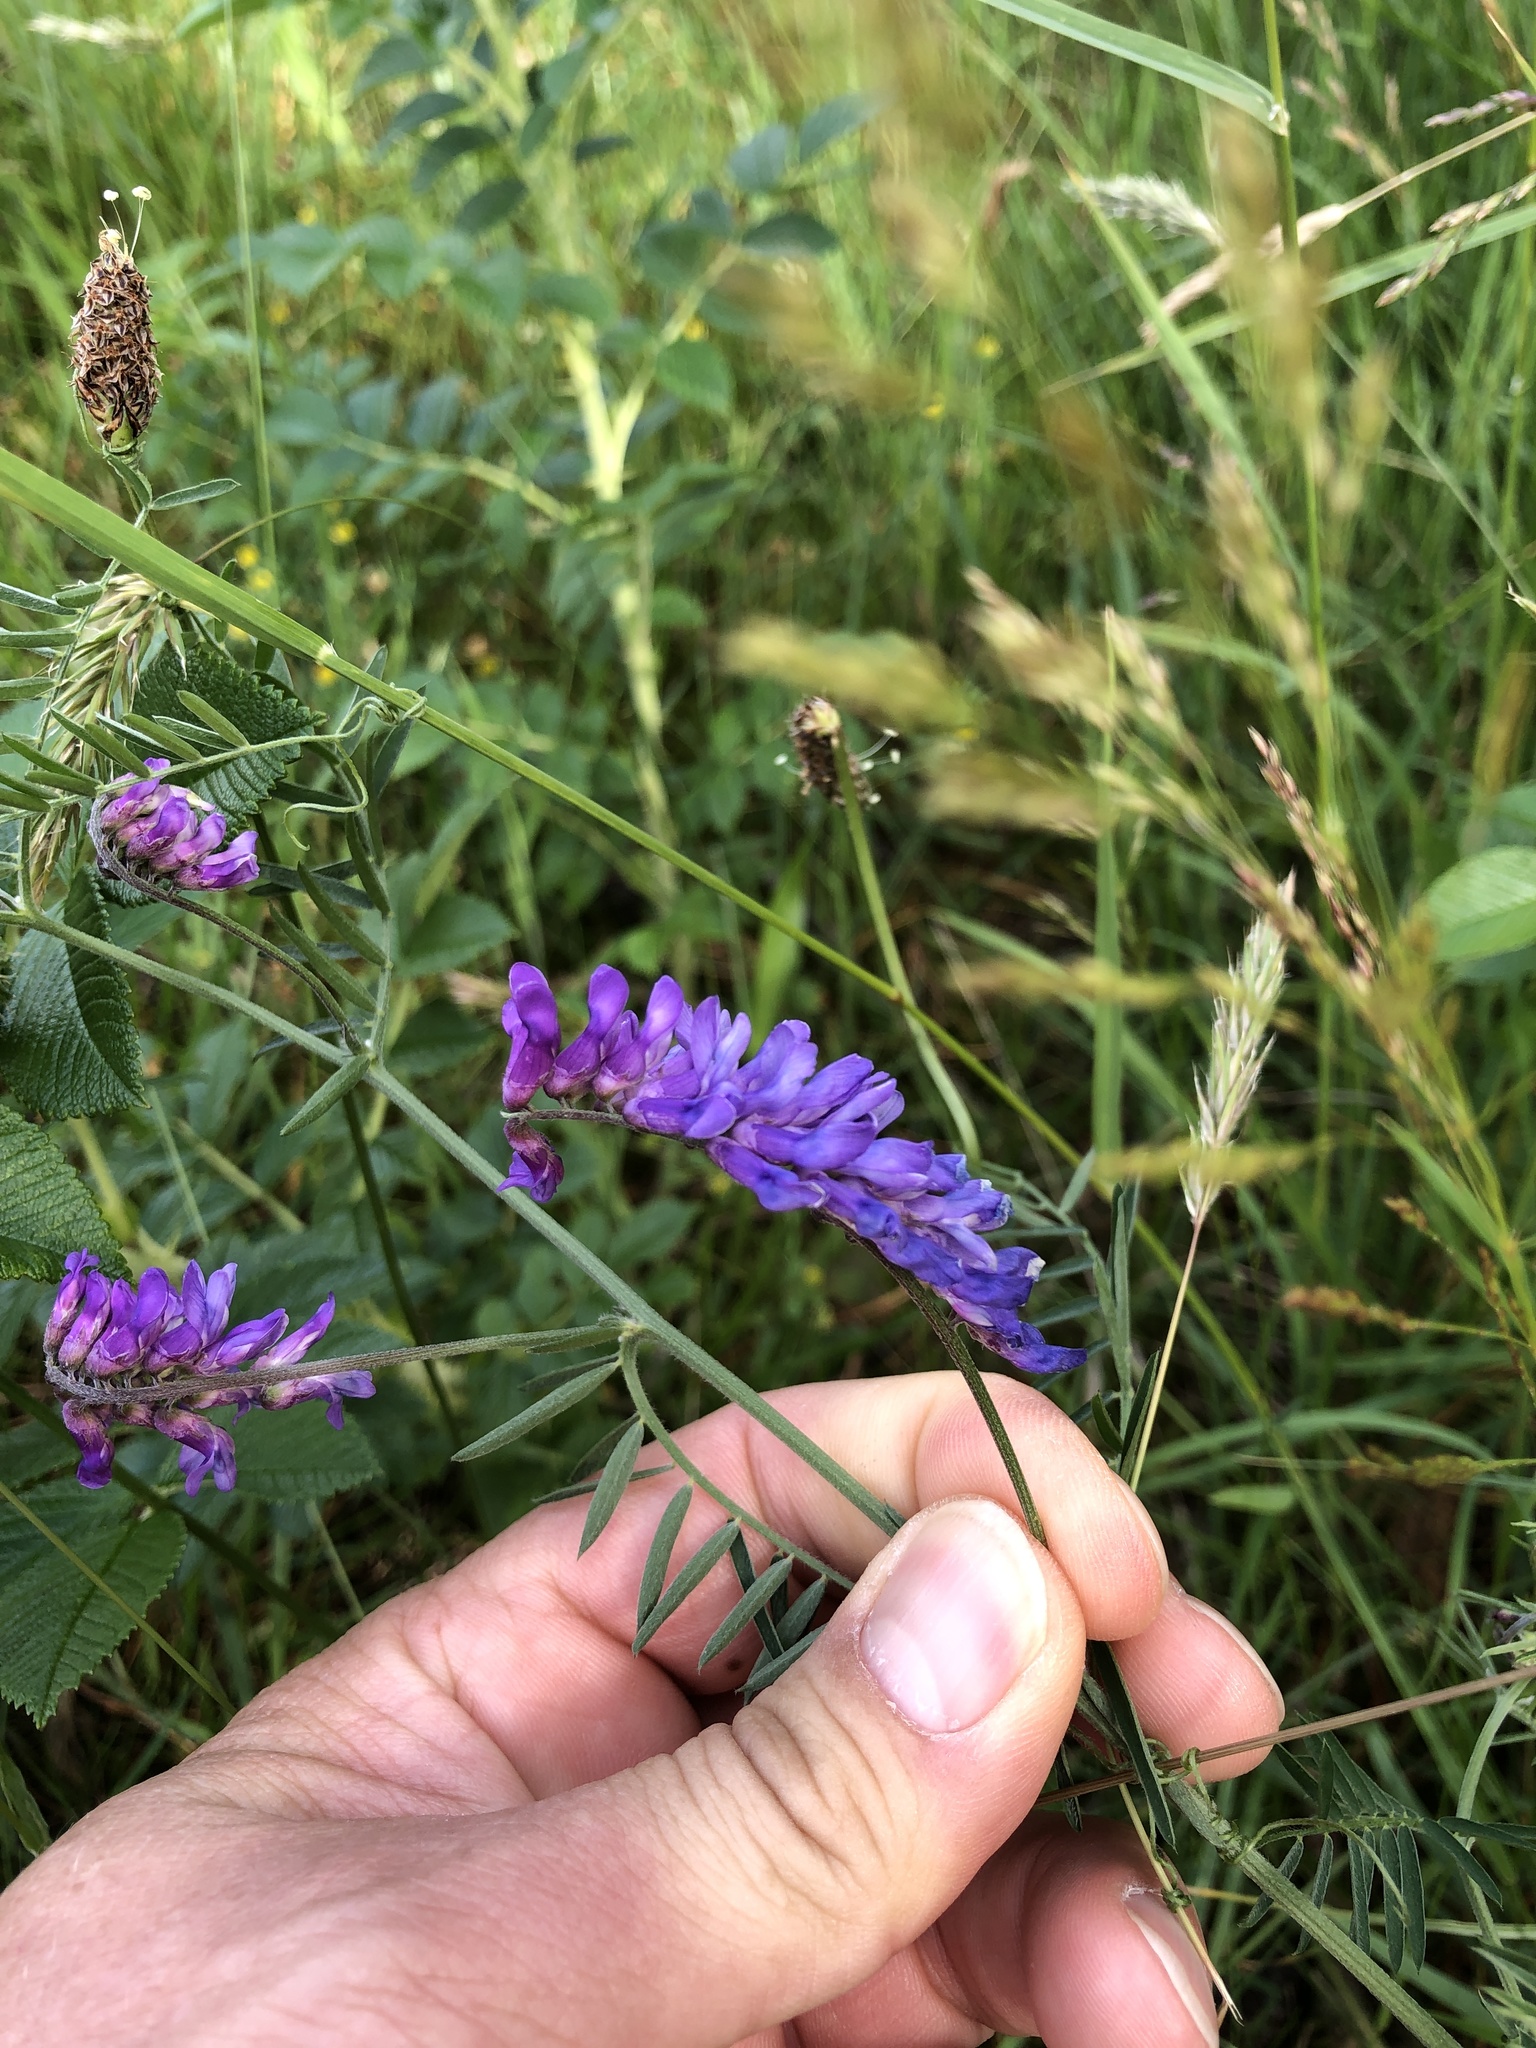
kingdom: Plantae
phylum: Tracheophyta
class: Magnoliopsida
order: Fabales
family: Fabaceae
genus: Vicia
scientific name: Vicia cracca
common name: Bird vetch
